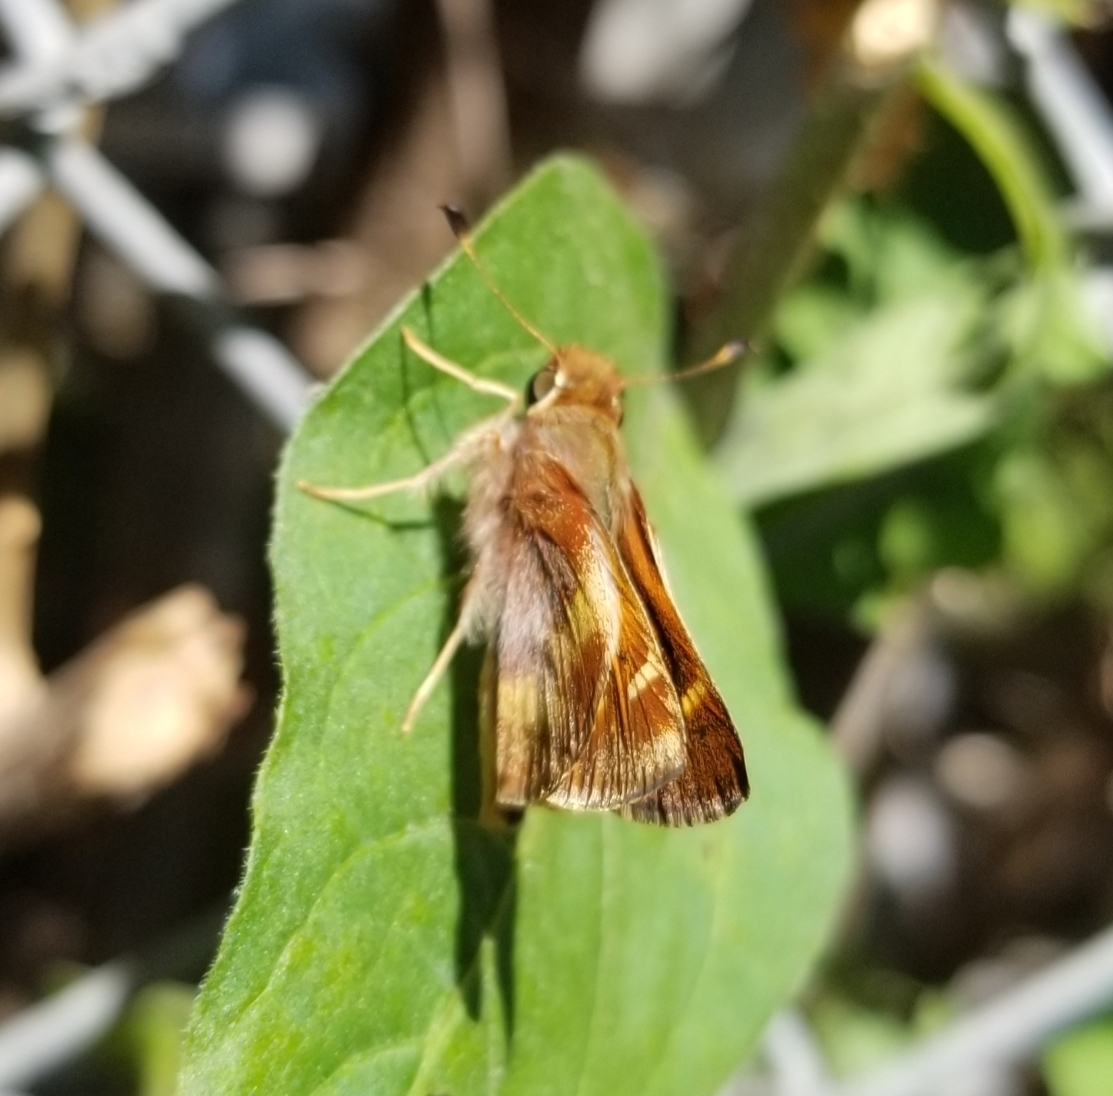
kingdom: Animalia
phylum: Arthropoda
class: Insecta
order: Lepidoptera
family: Hesperiidae
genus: Lon
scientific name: Lon melane
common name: Umber skipper
